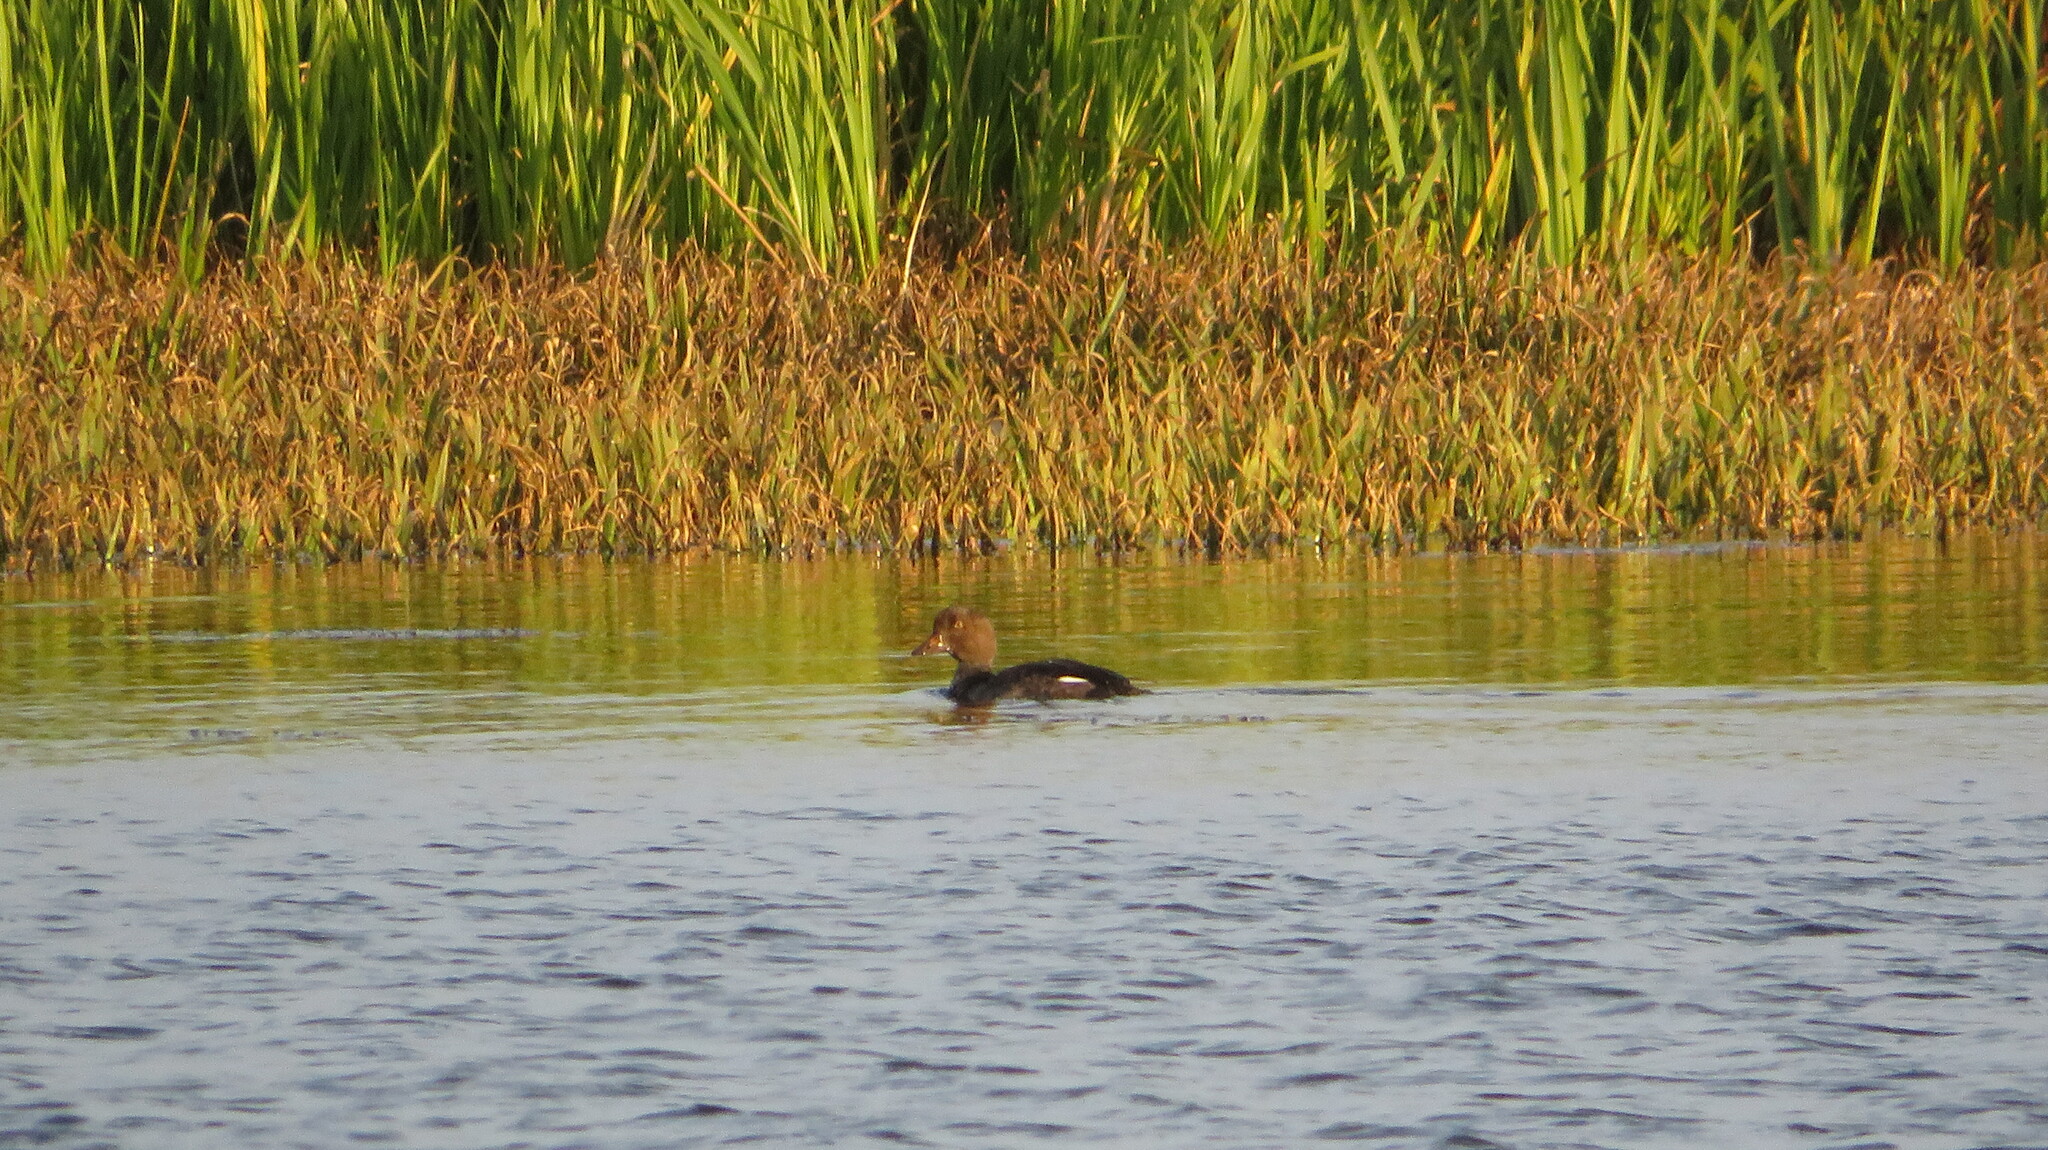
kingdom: Animalia
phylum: Chordata
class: Aves
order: Anseriformes
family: Anatidae
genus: Bucephala
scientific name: Bucephala clangula
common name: Common goldeneye
